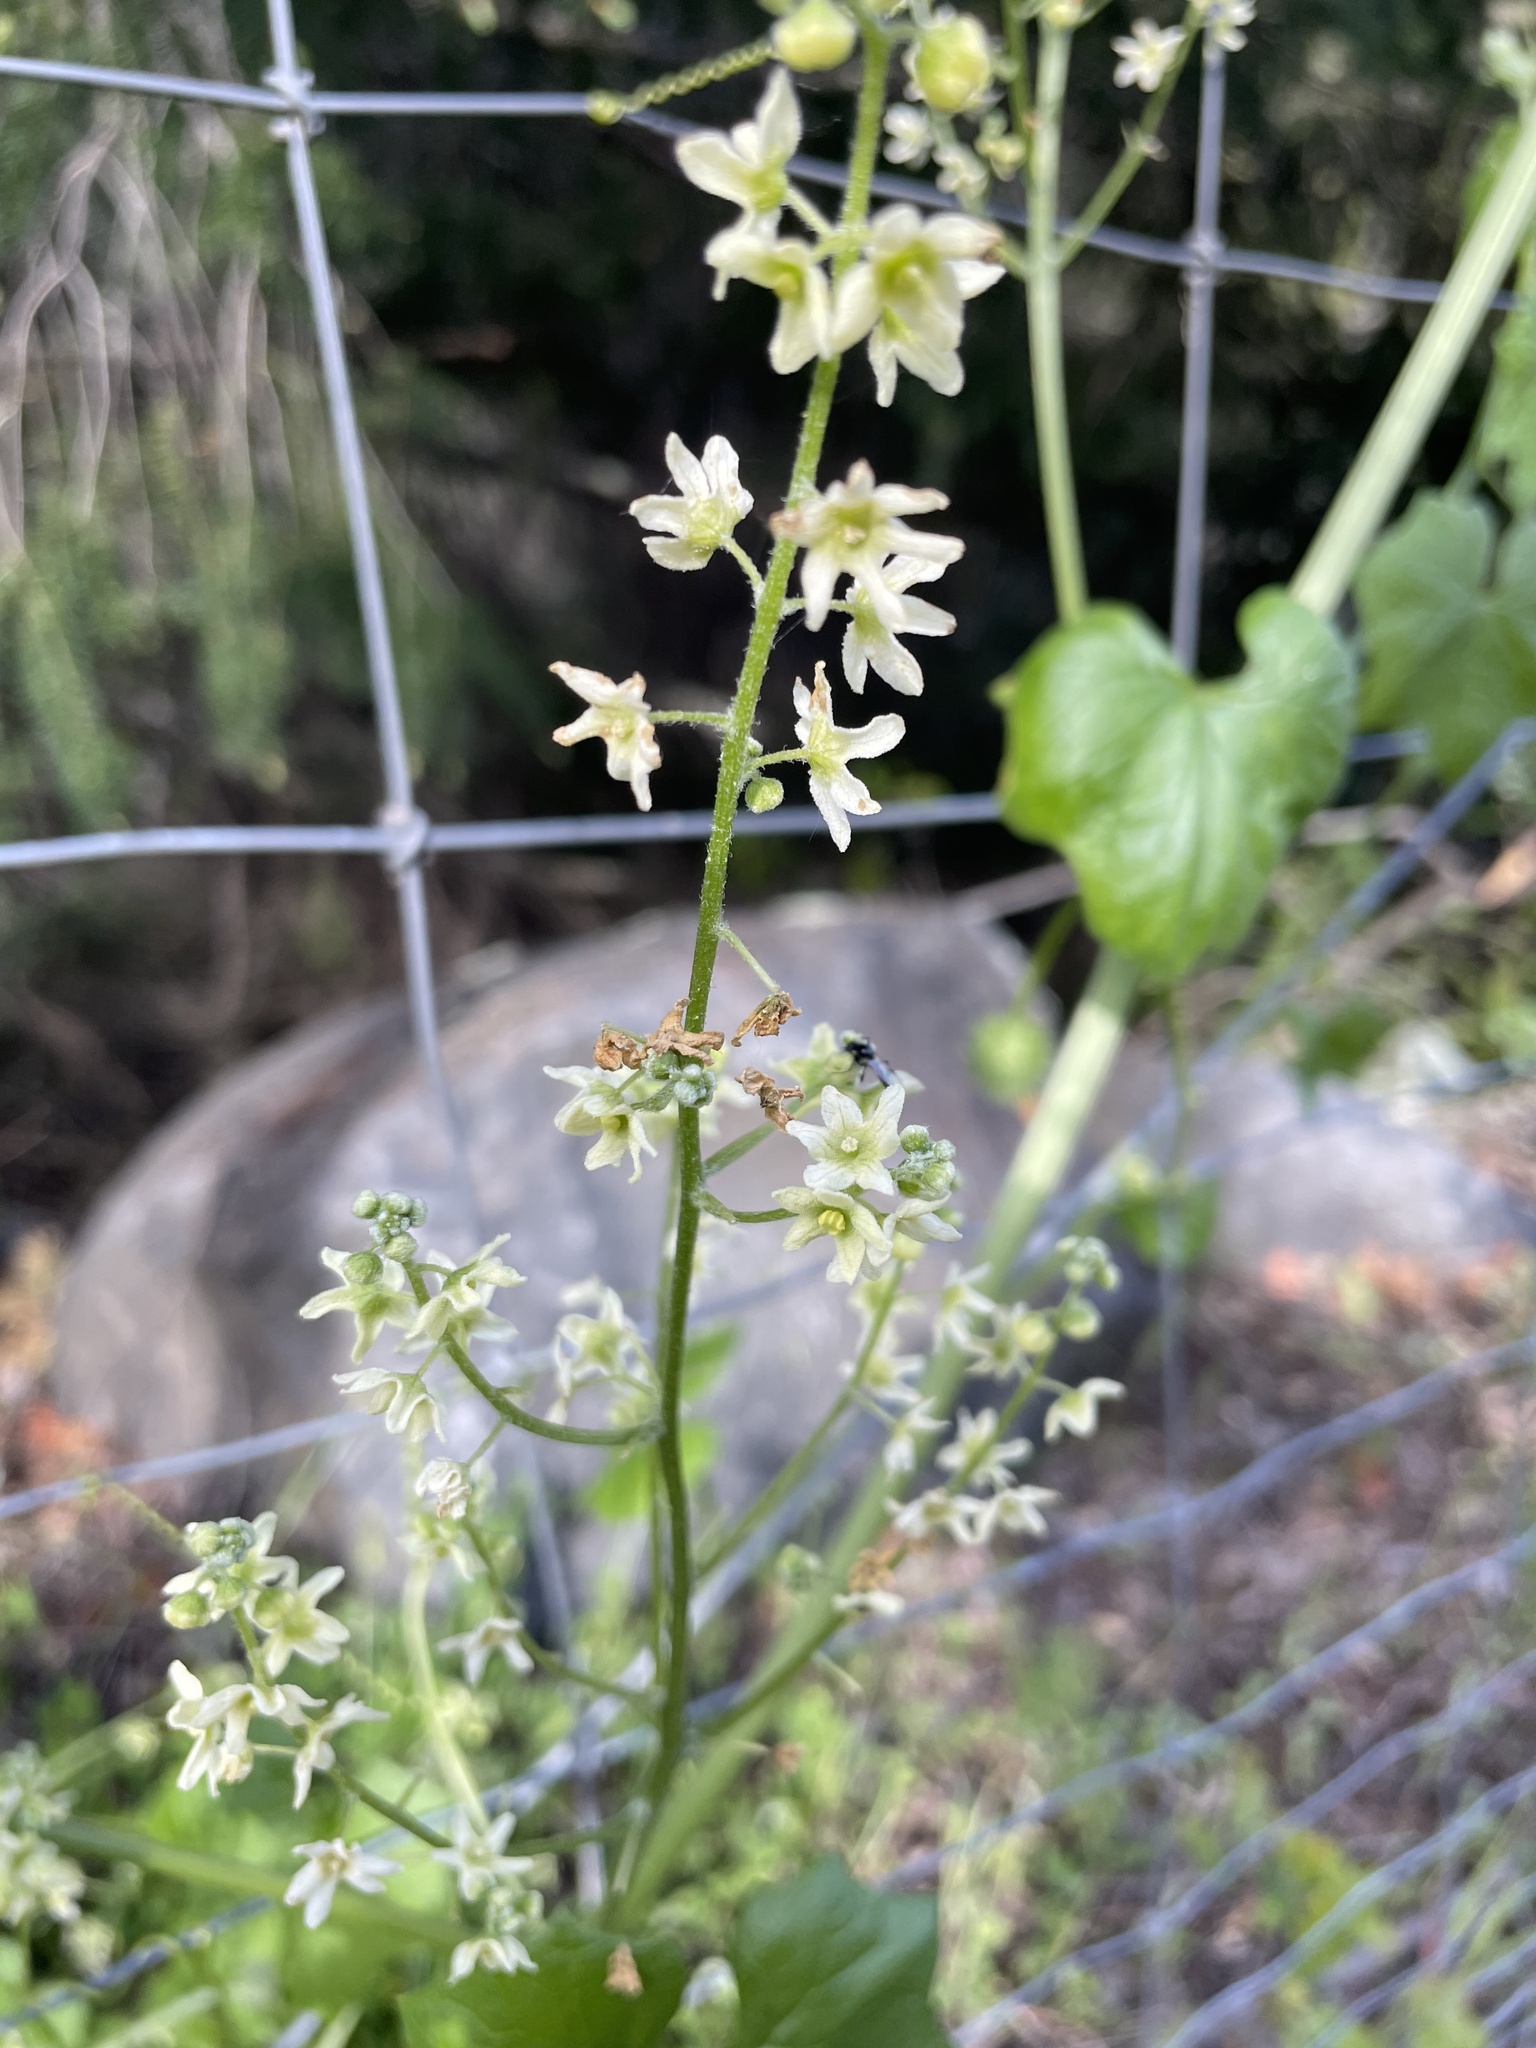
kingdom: Plantae
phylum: Tracheophyta
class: Magnoliopsida
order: Cucurbitales
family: Cucurbitaceae
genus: Marah
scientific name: Marah fabacea
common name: California manroot
